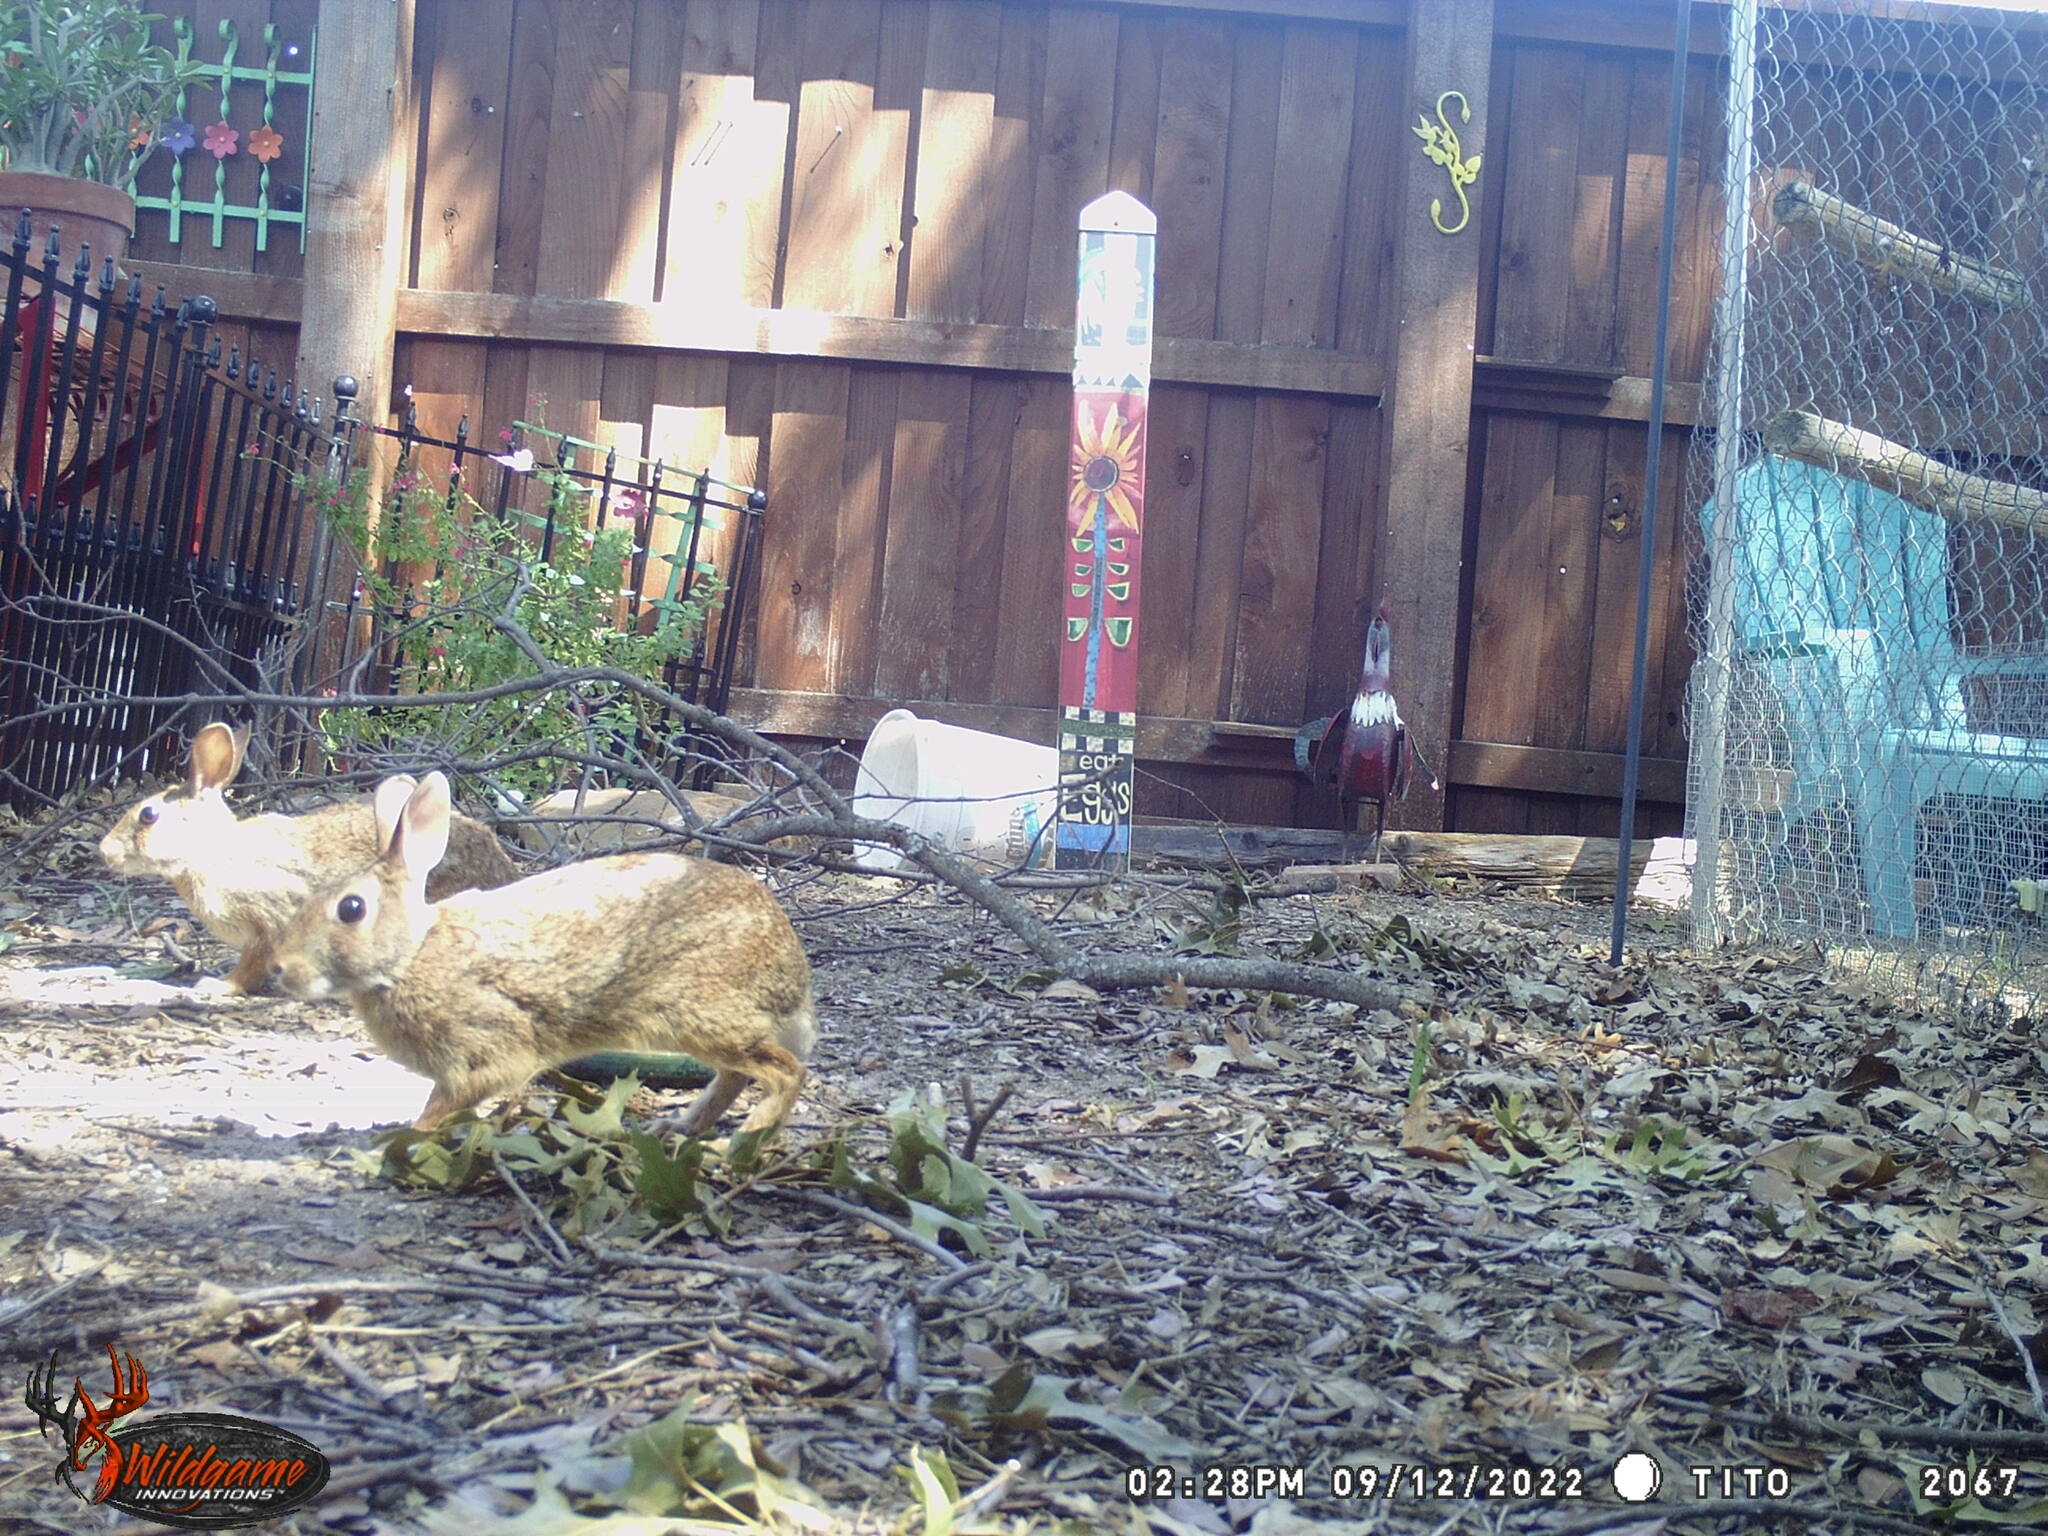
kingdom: Animalia
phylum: Chordata
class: Mammalia
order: Lagomorpha
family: Leporidae
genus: Sylvilagus
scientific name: Sylvilagus floridanus
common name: Eastern cottontail
